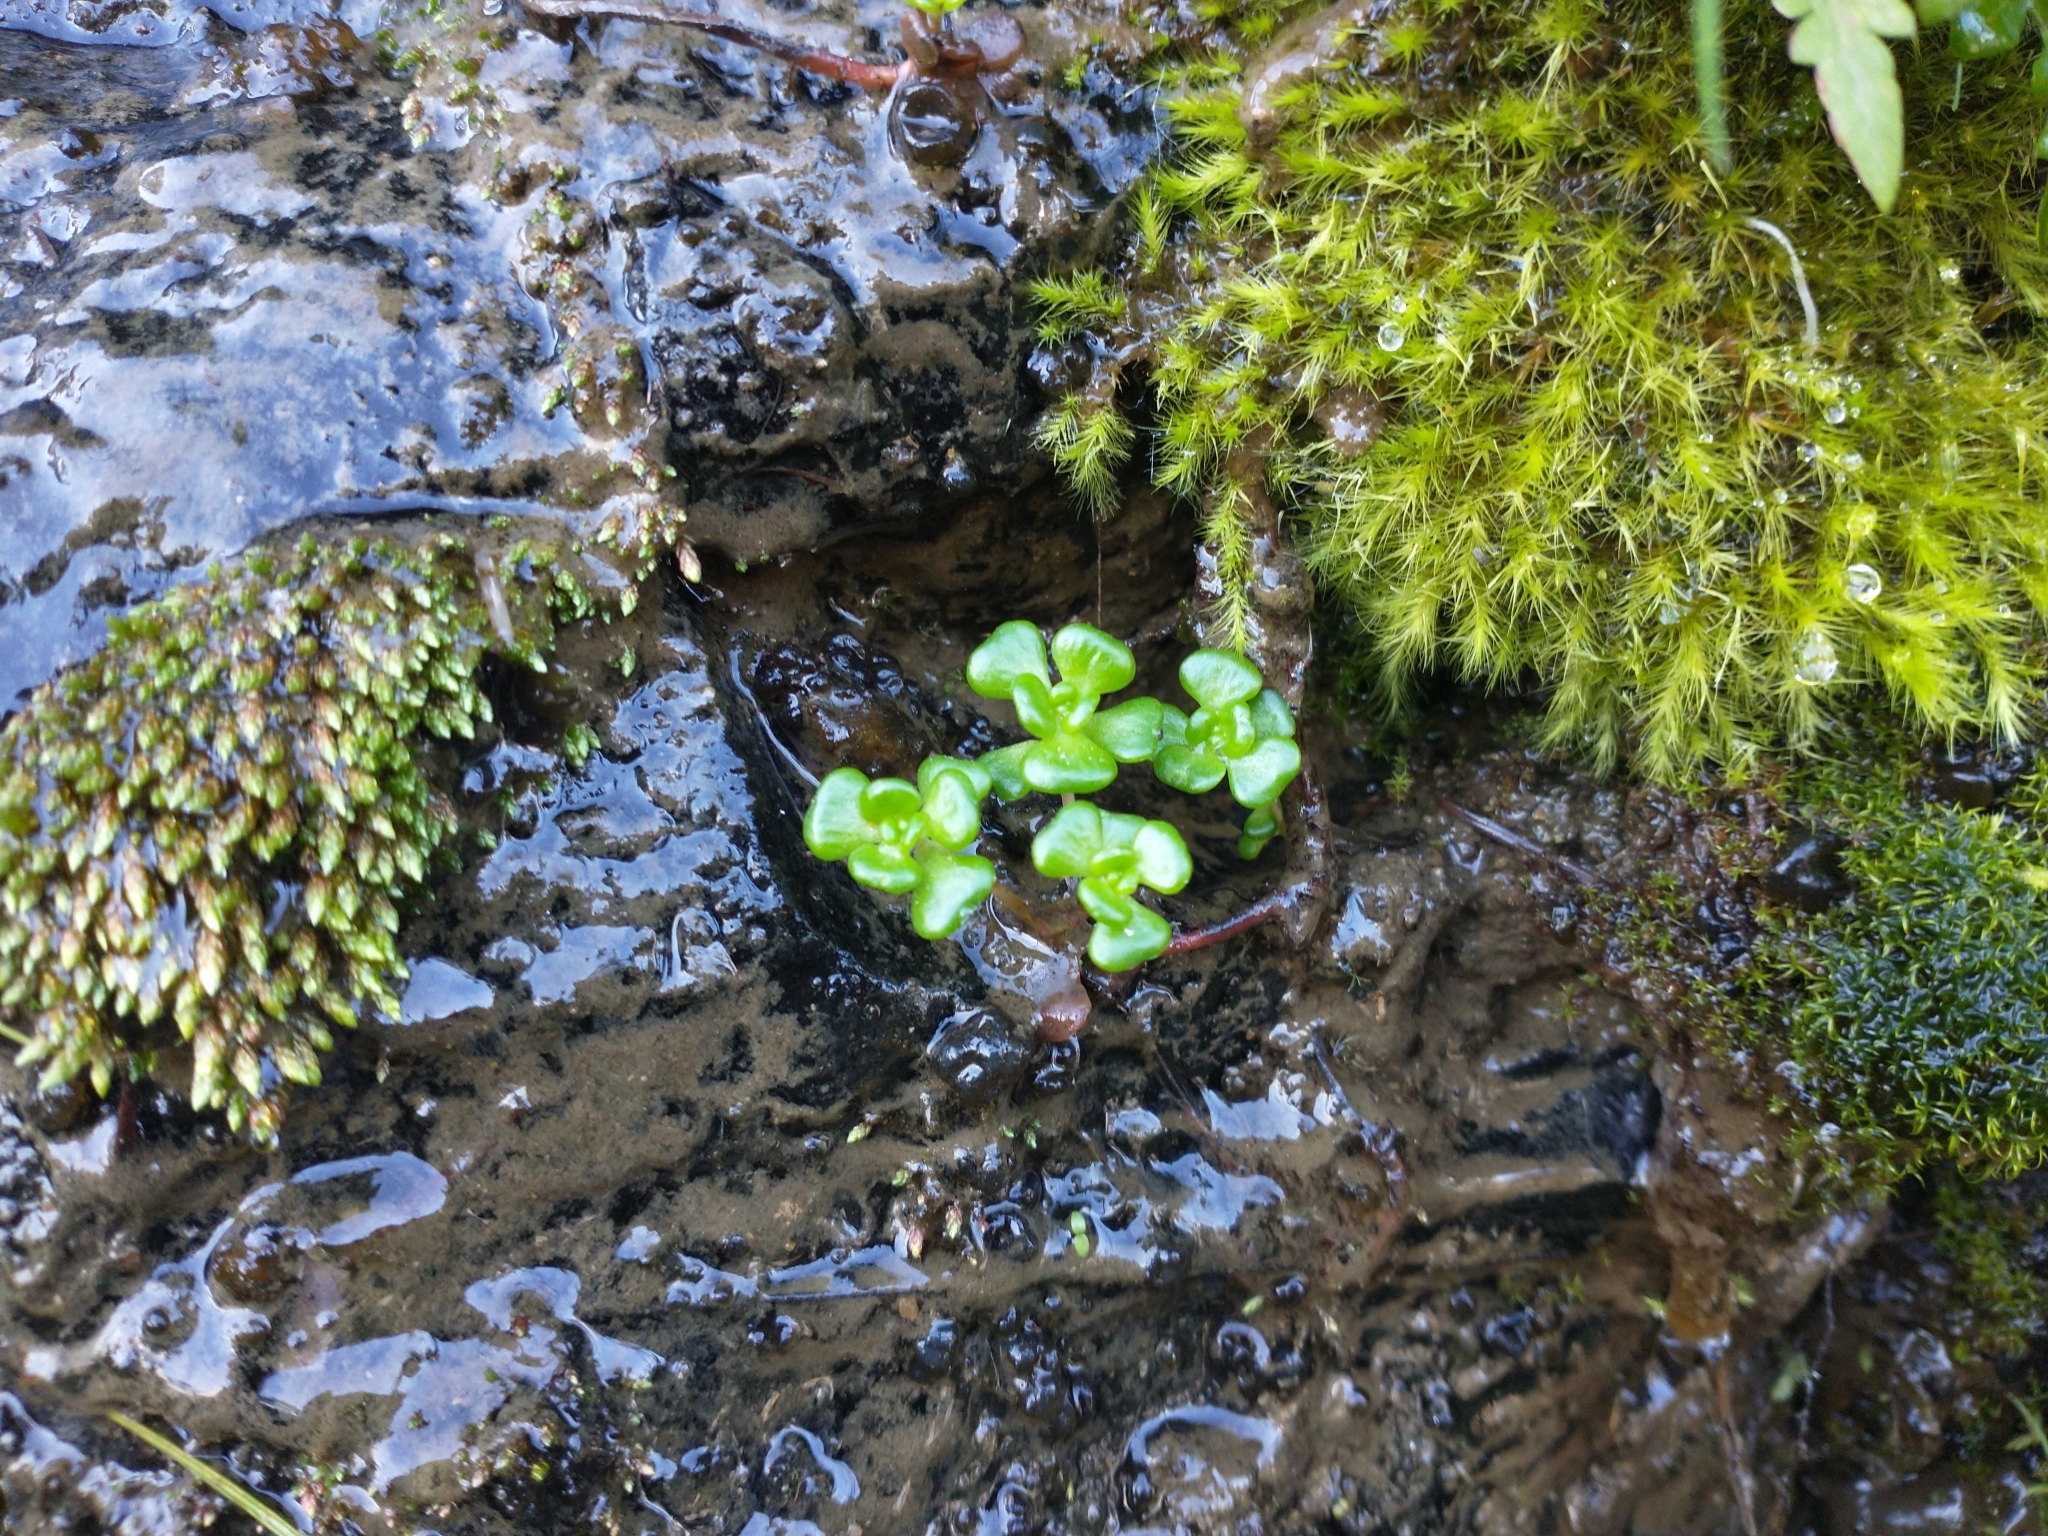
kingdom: Plantae
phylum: Tracheophyta
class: Magnoliopsida
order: Saxifragales
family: Crassulaceae
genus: Sedum
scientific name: Sedum oreganum
